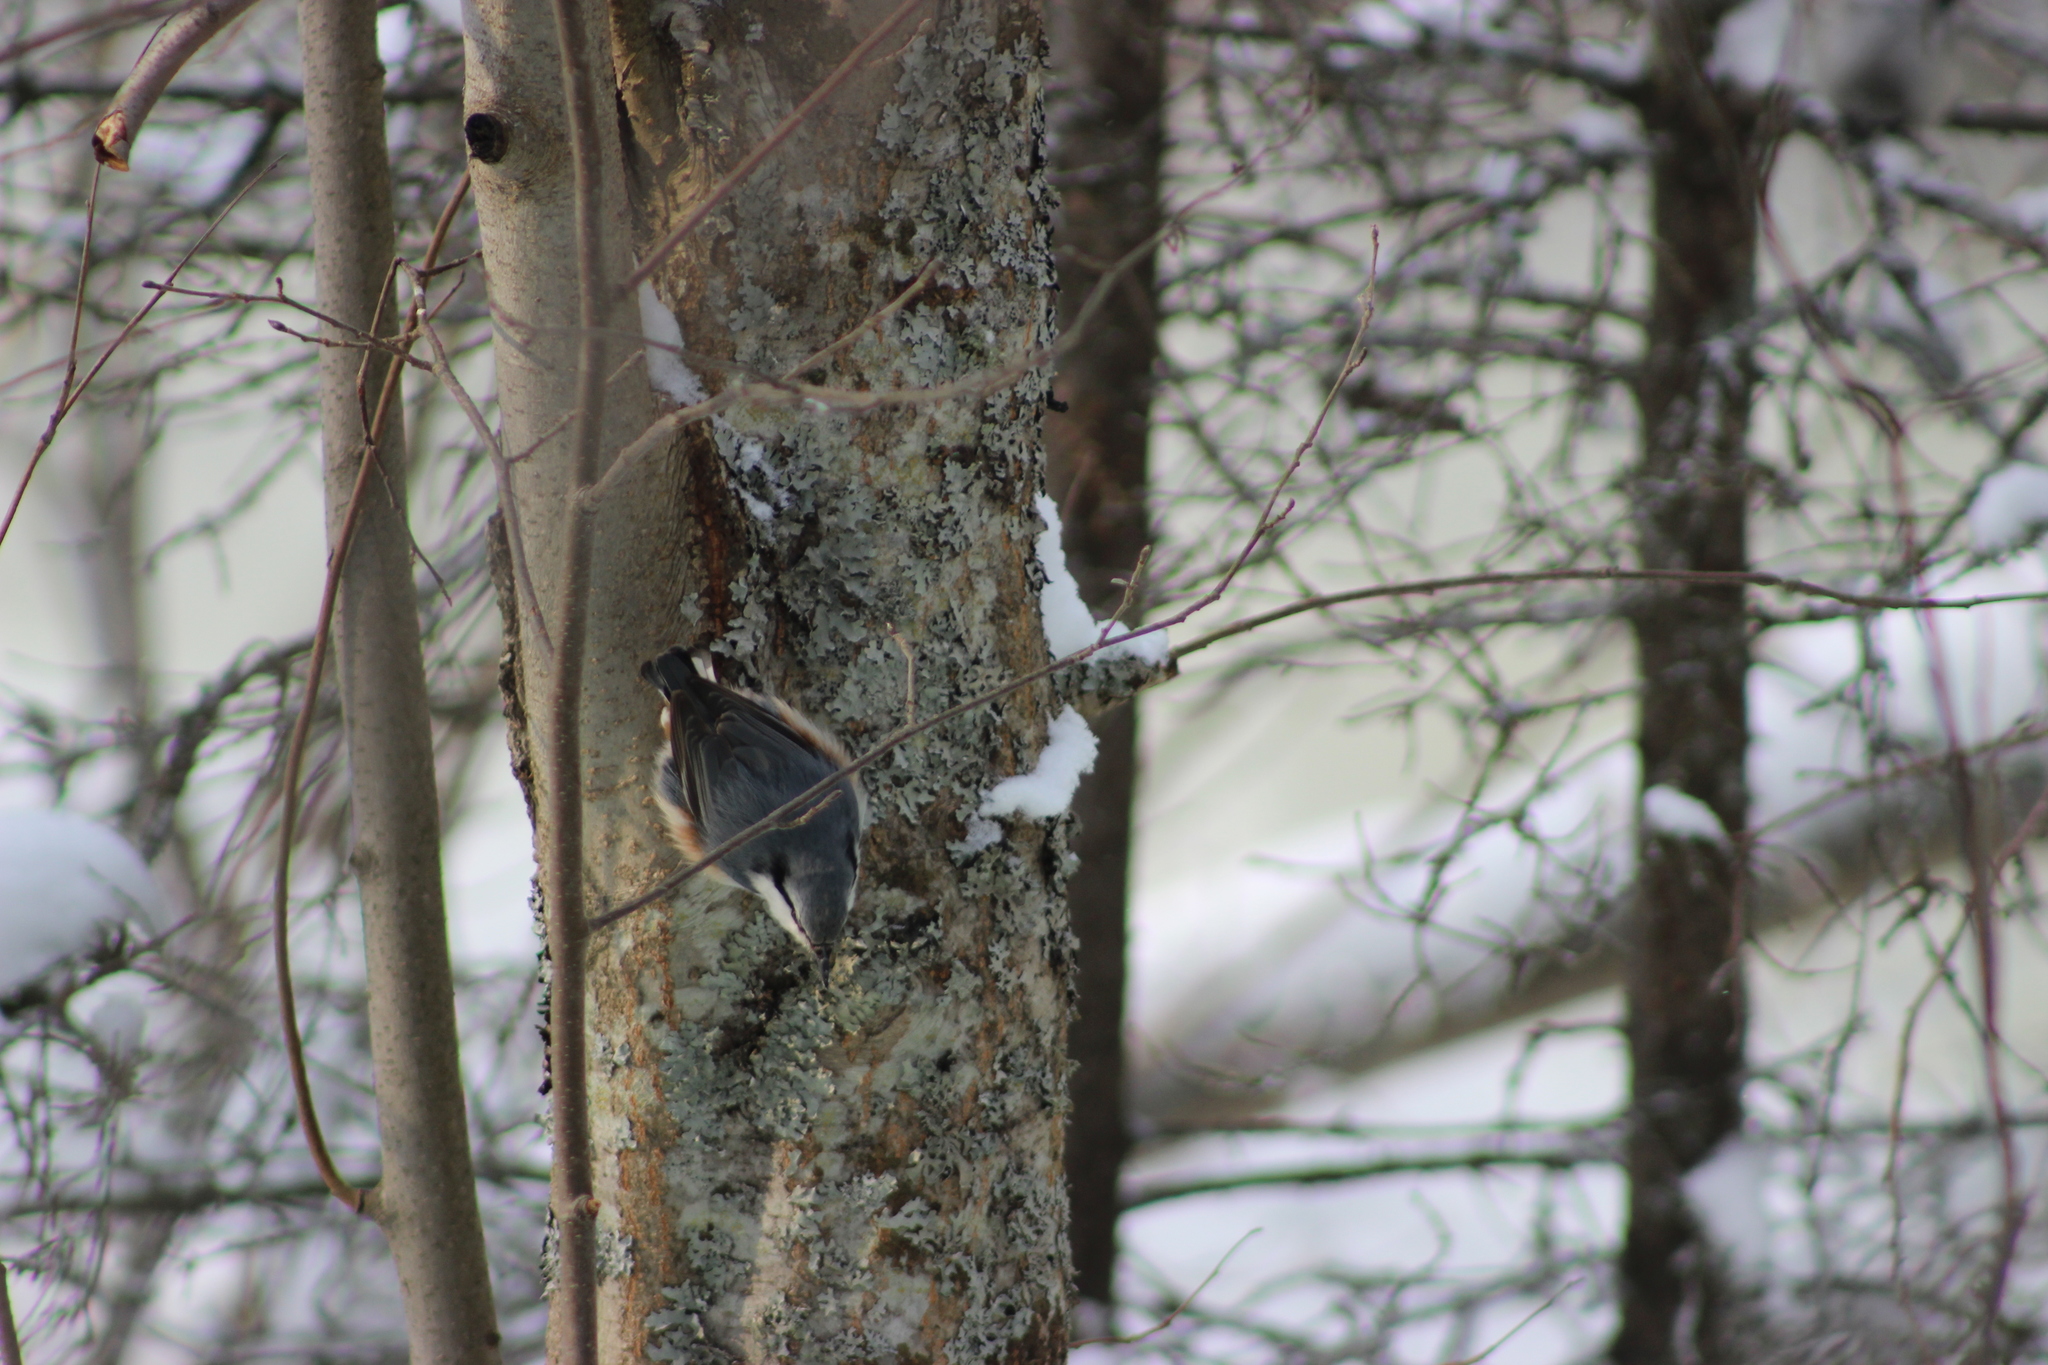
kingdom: Animalia
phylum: Chordata
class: Aves
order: Passeriformes
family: Sittidae
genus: Sitta
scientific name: Sitta europaea
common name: Eurasian nuthatch
